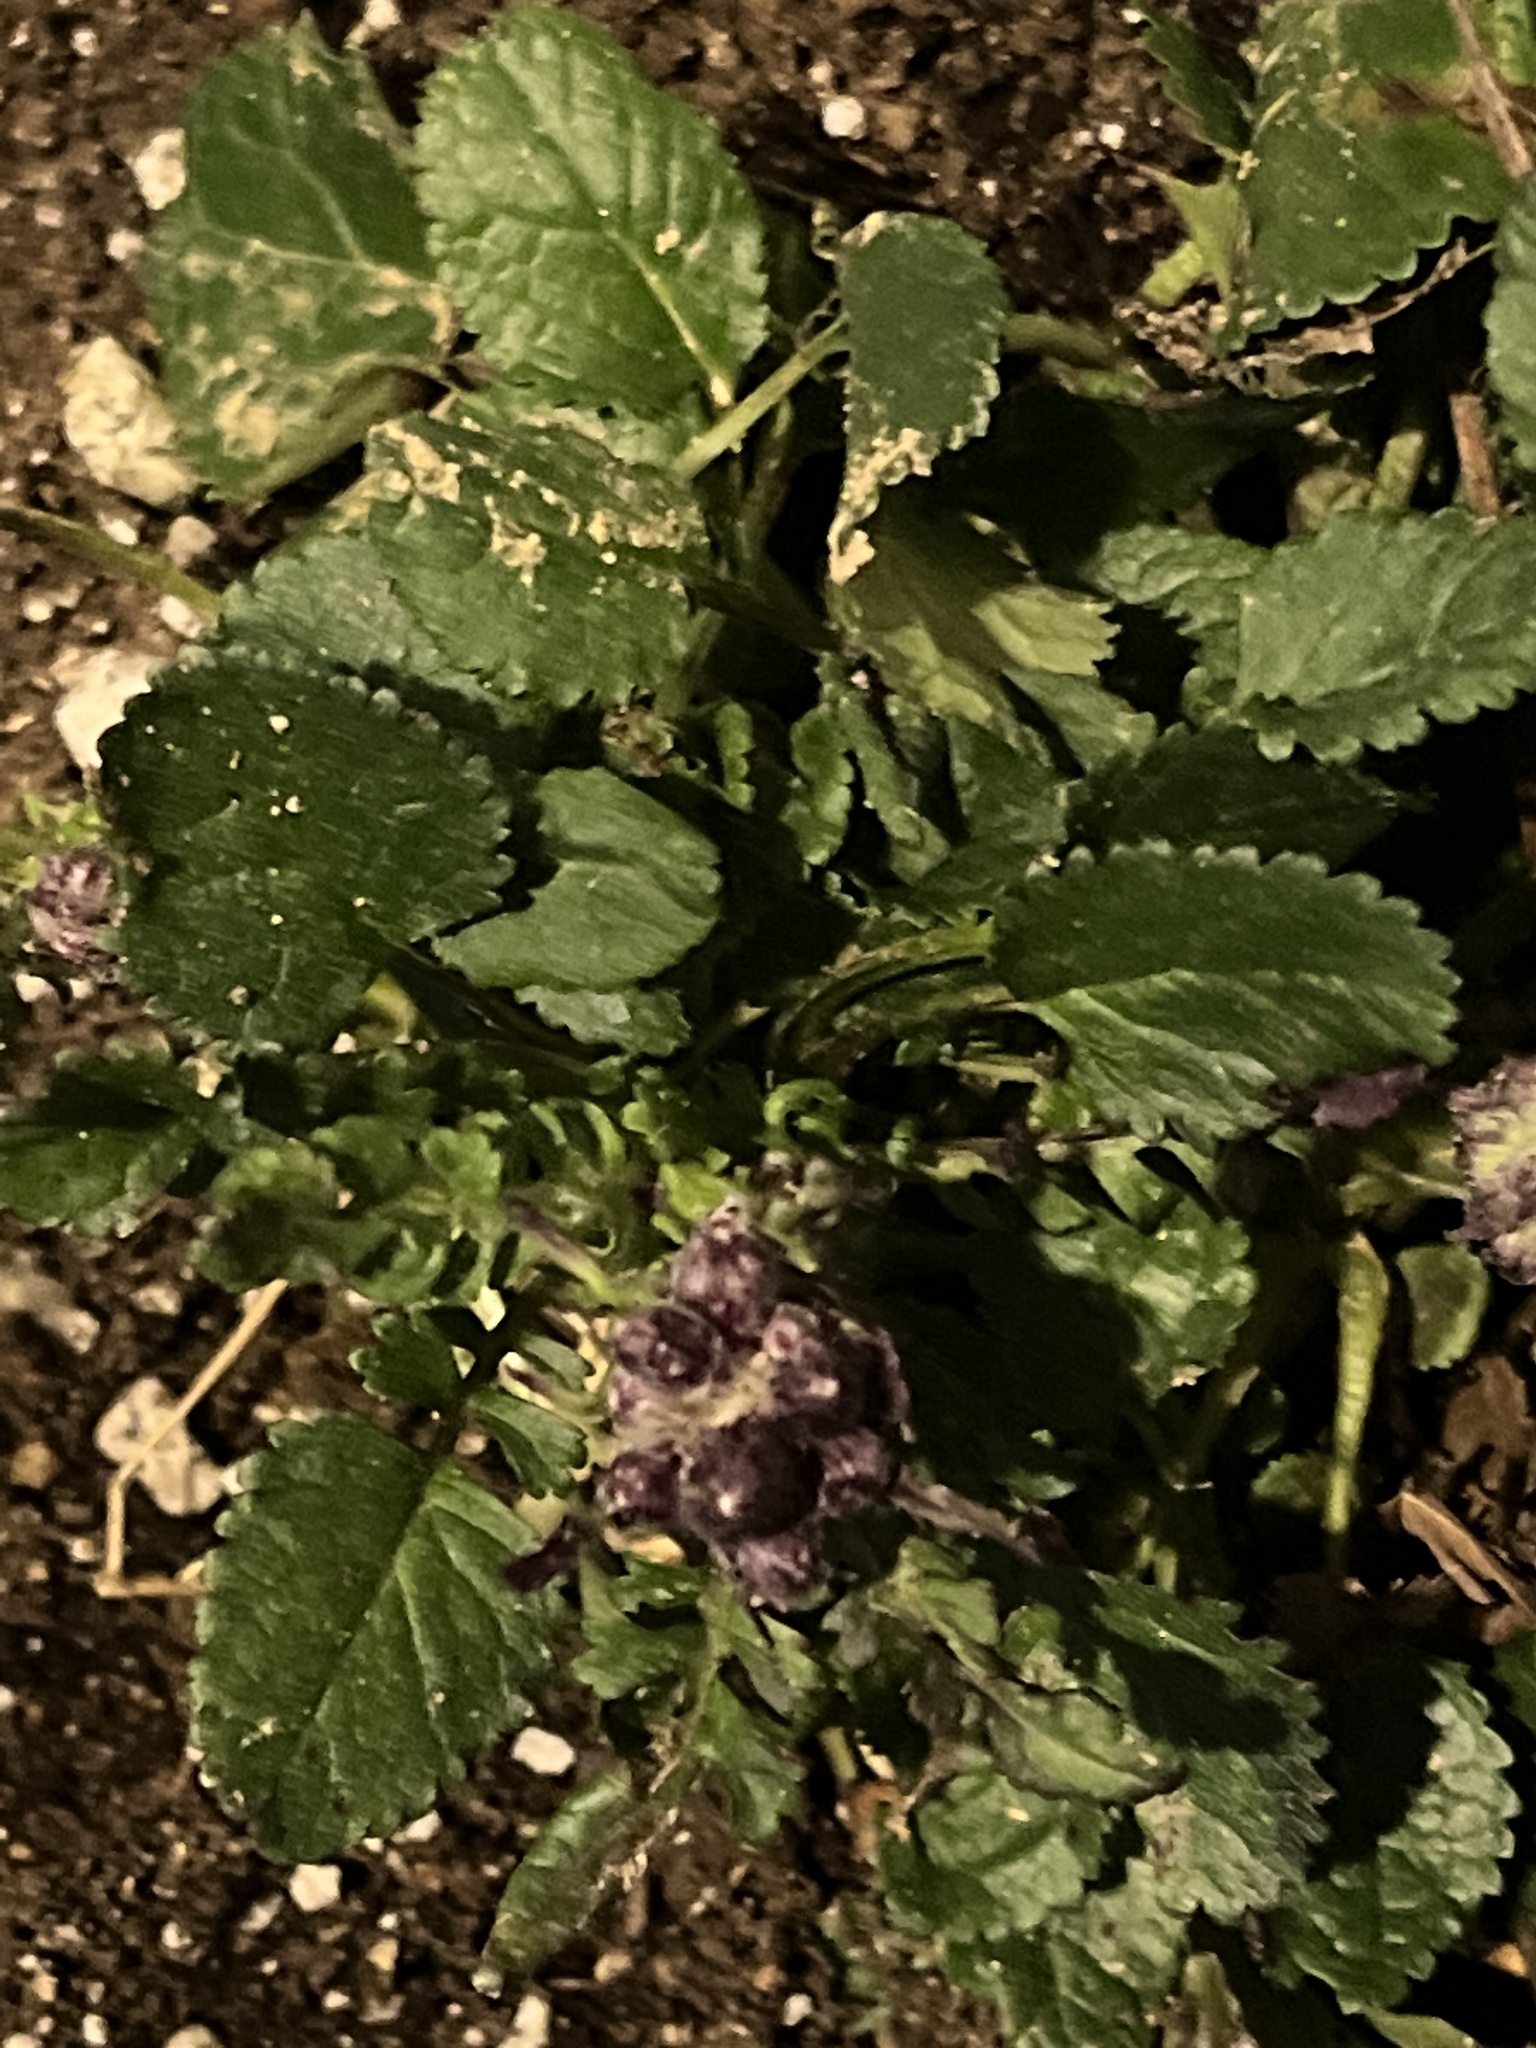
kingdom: Plantae
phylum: Tracheophyta
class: Magnoliopsida
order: Asterales
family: Asteraceae
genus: Packera
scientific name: Packera aurea
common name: Golden groundsel
